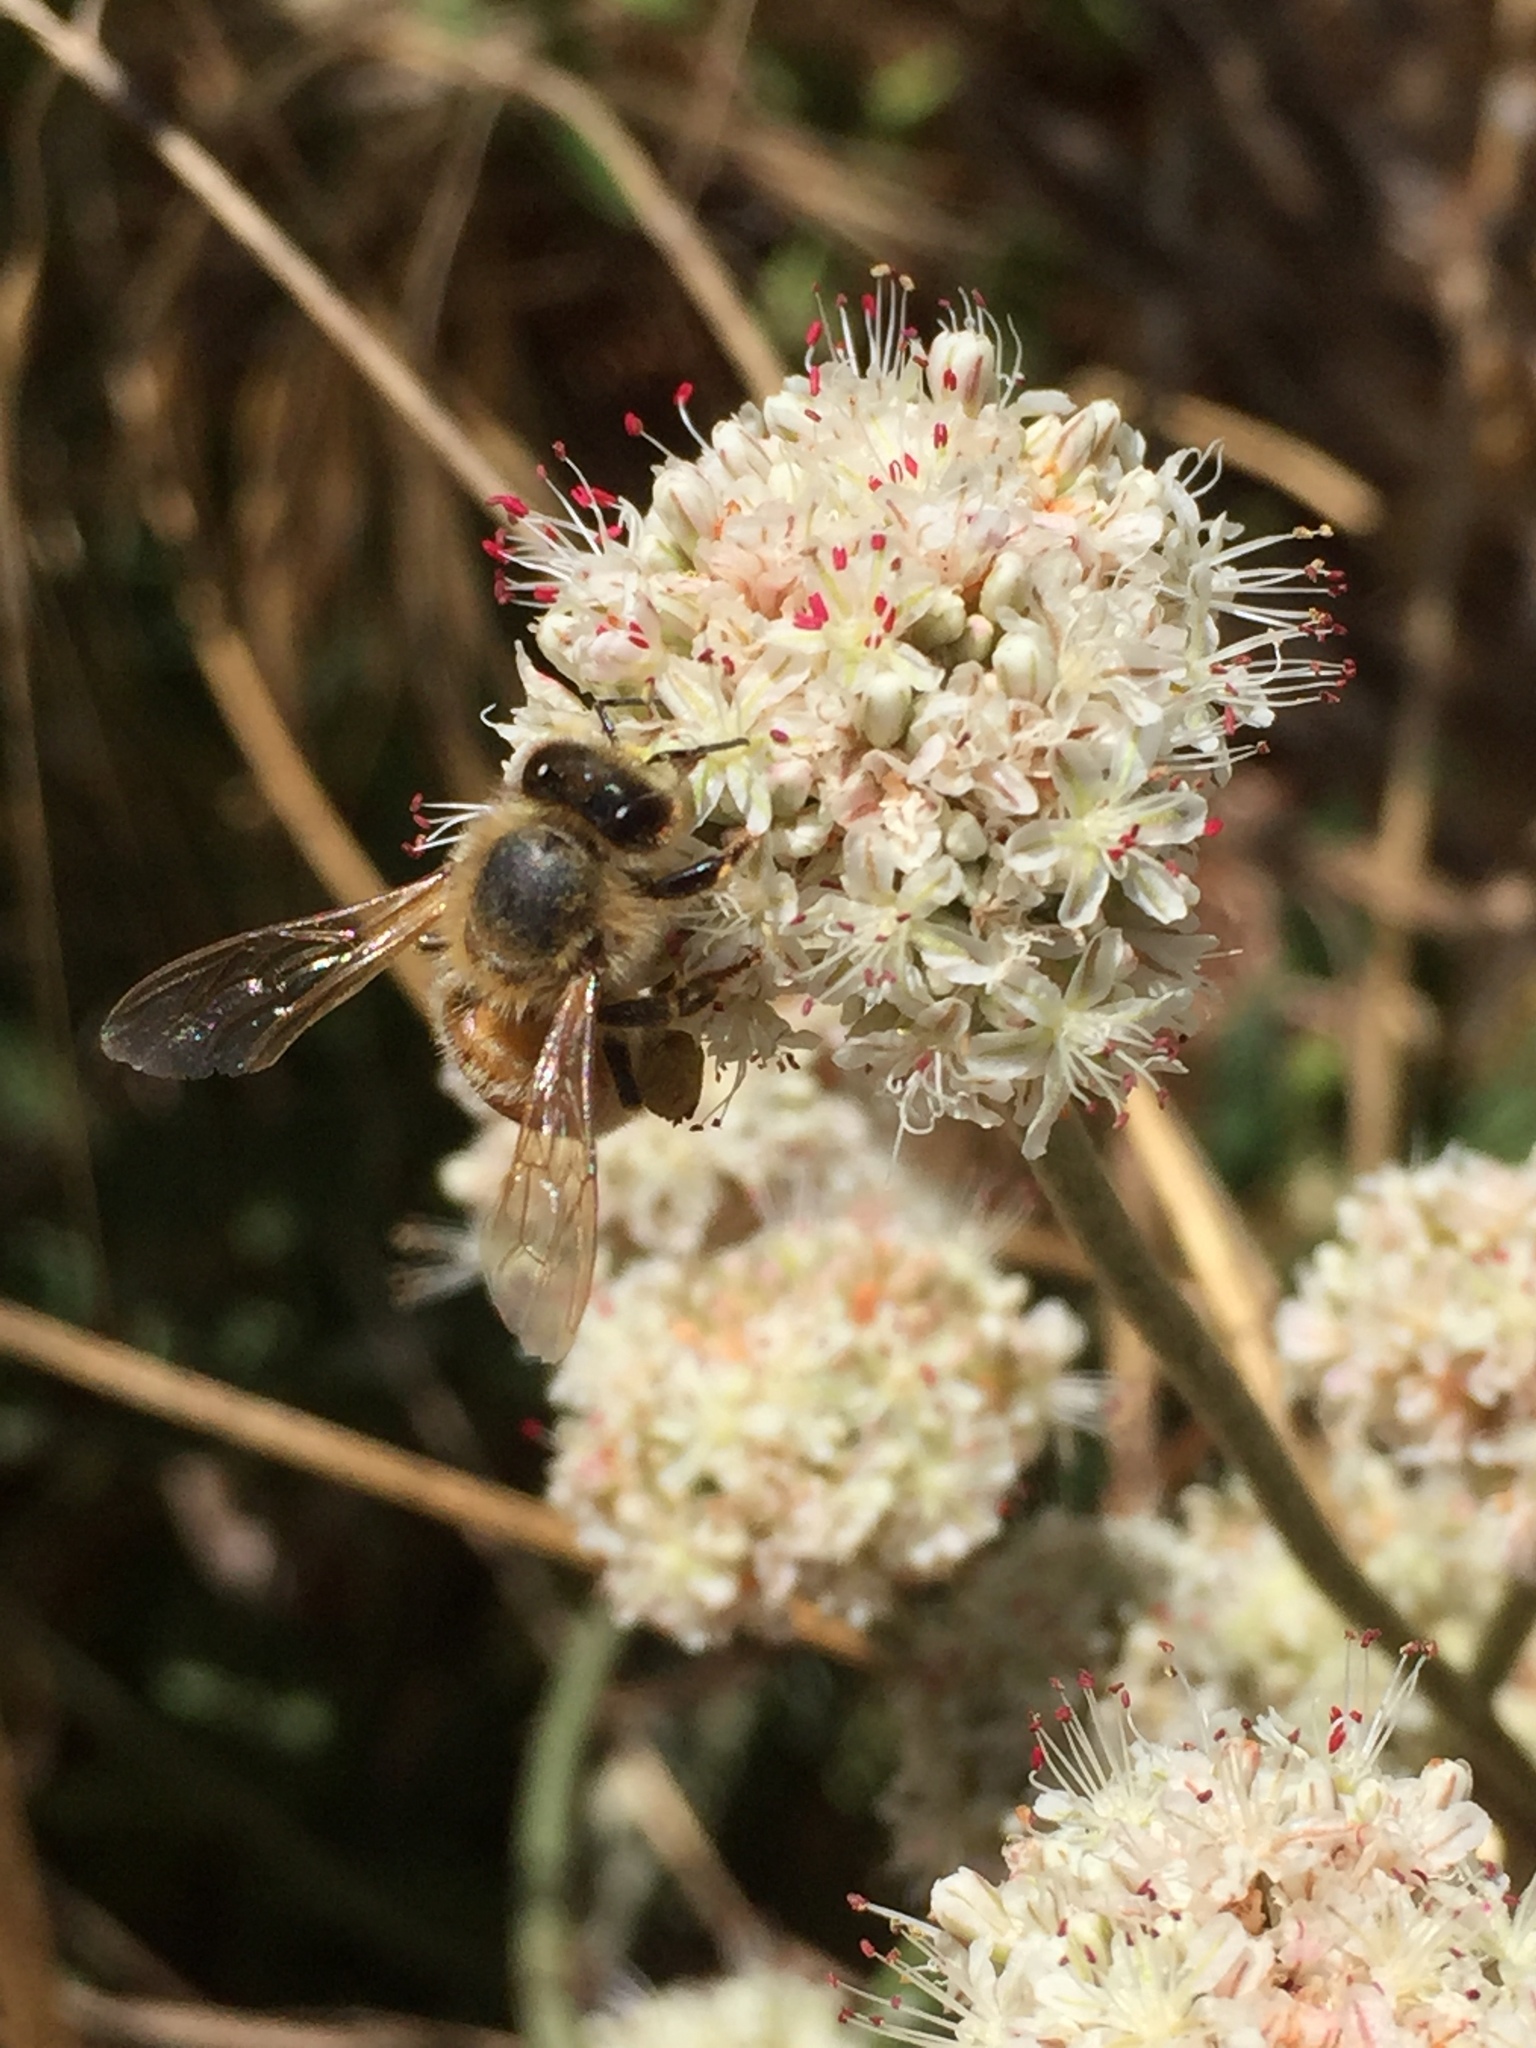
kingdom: Animalia
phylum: Arthropoda
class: Insecta
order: Hymenoptera
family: Apidae
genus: Apis
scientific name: Apis mellifera
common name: Honey bee
